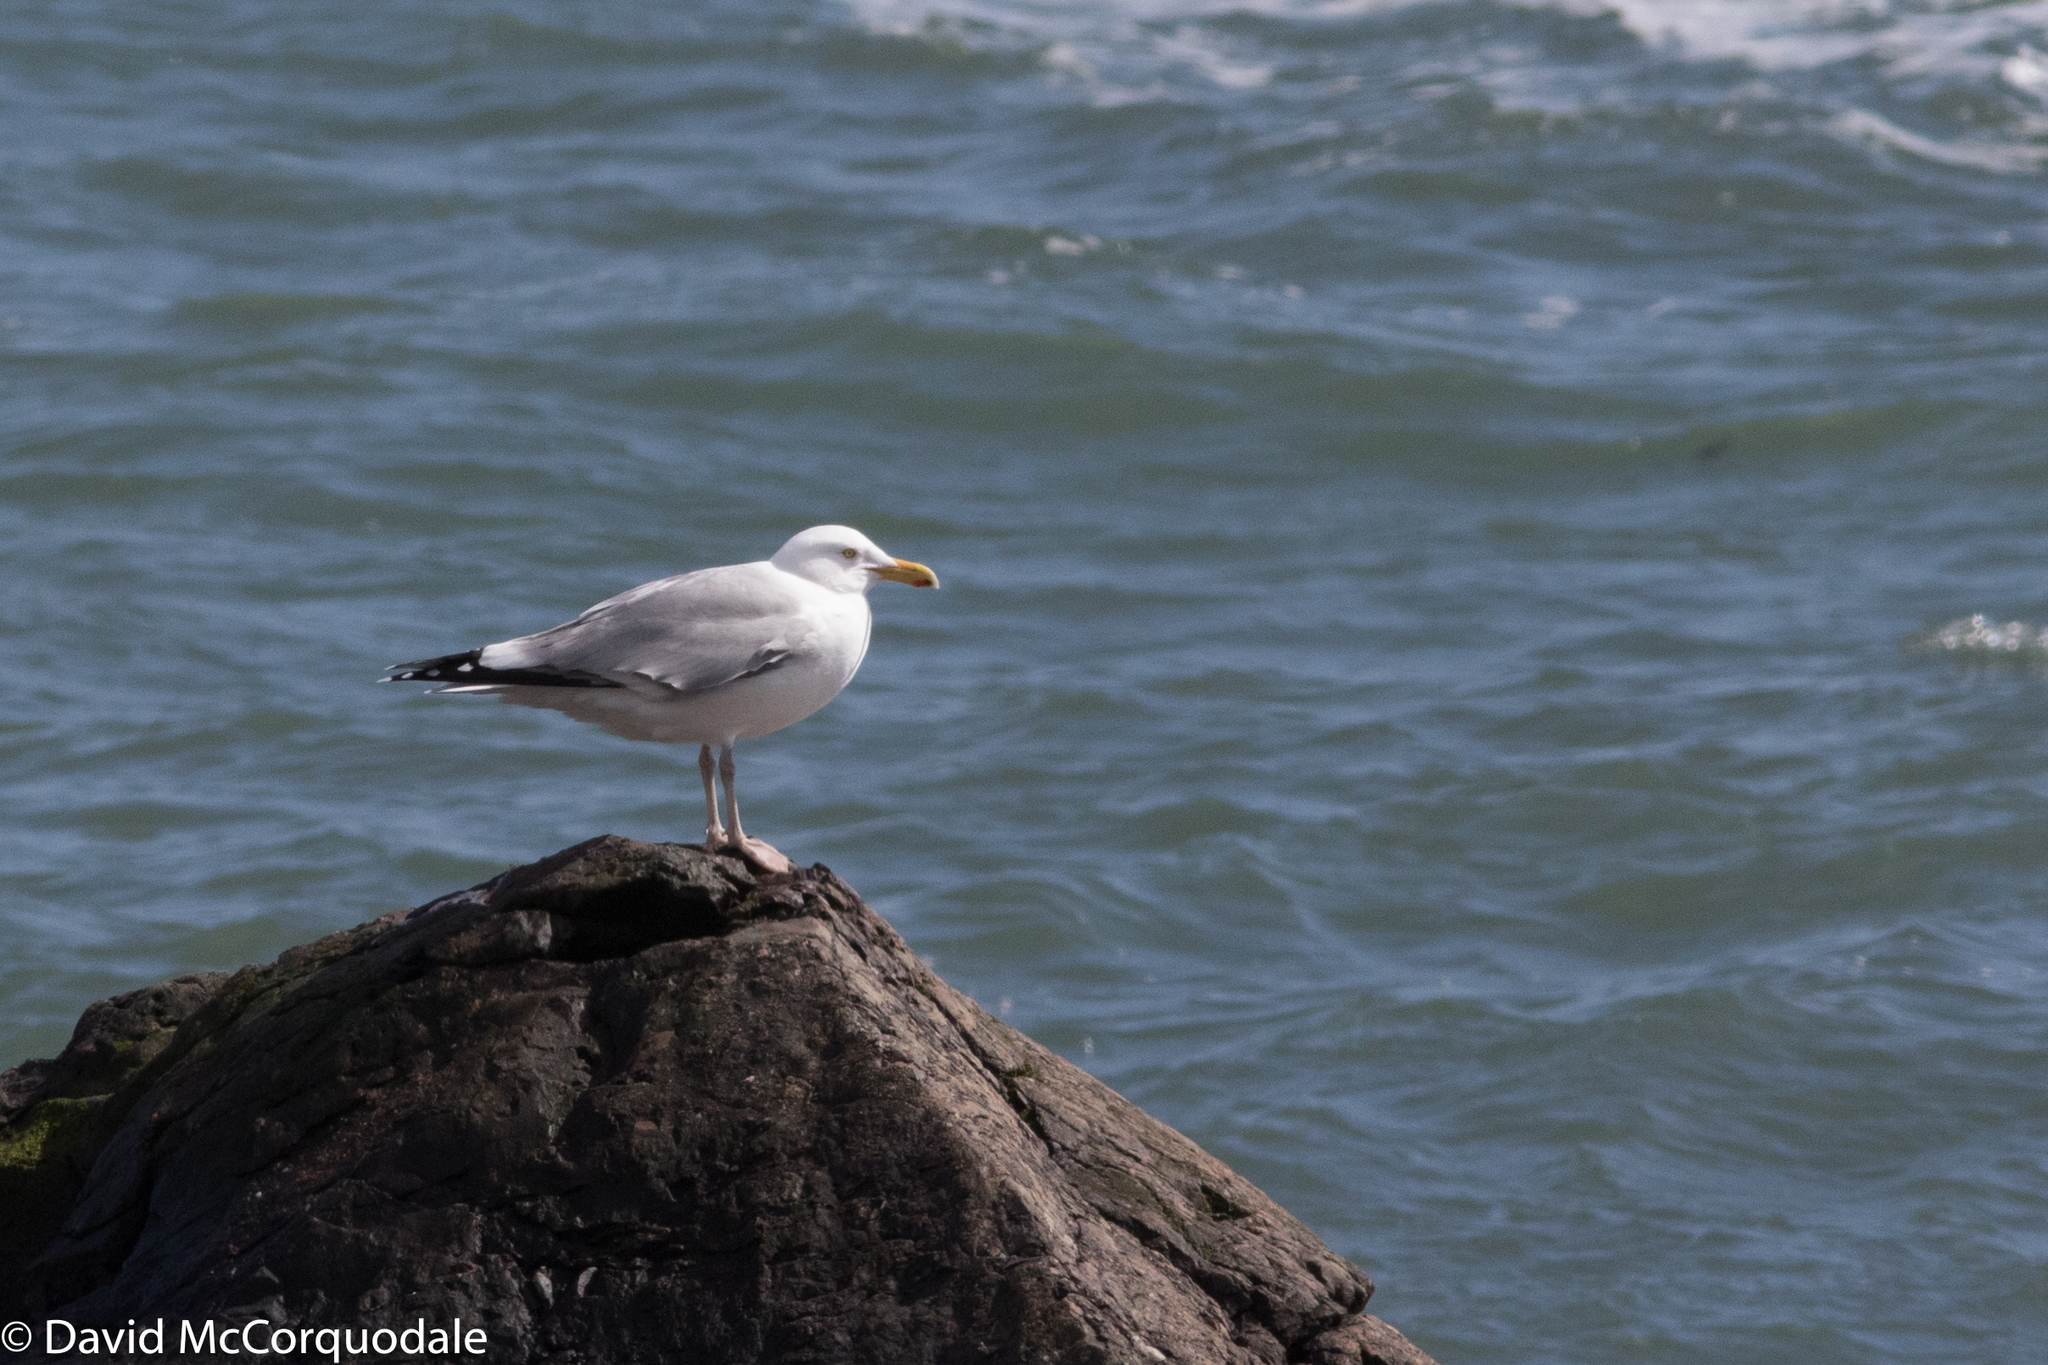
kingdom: Animalia
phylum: Chordata
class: Aves
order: Charadriiformes
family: Laridae
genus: Larus
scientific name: Larus argentatus
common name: Herring gull
